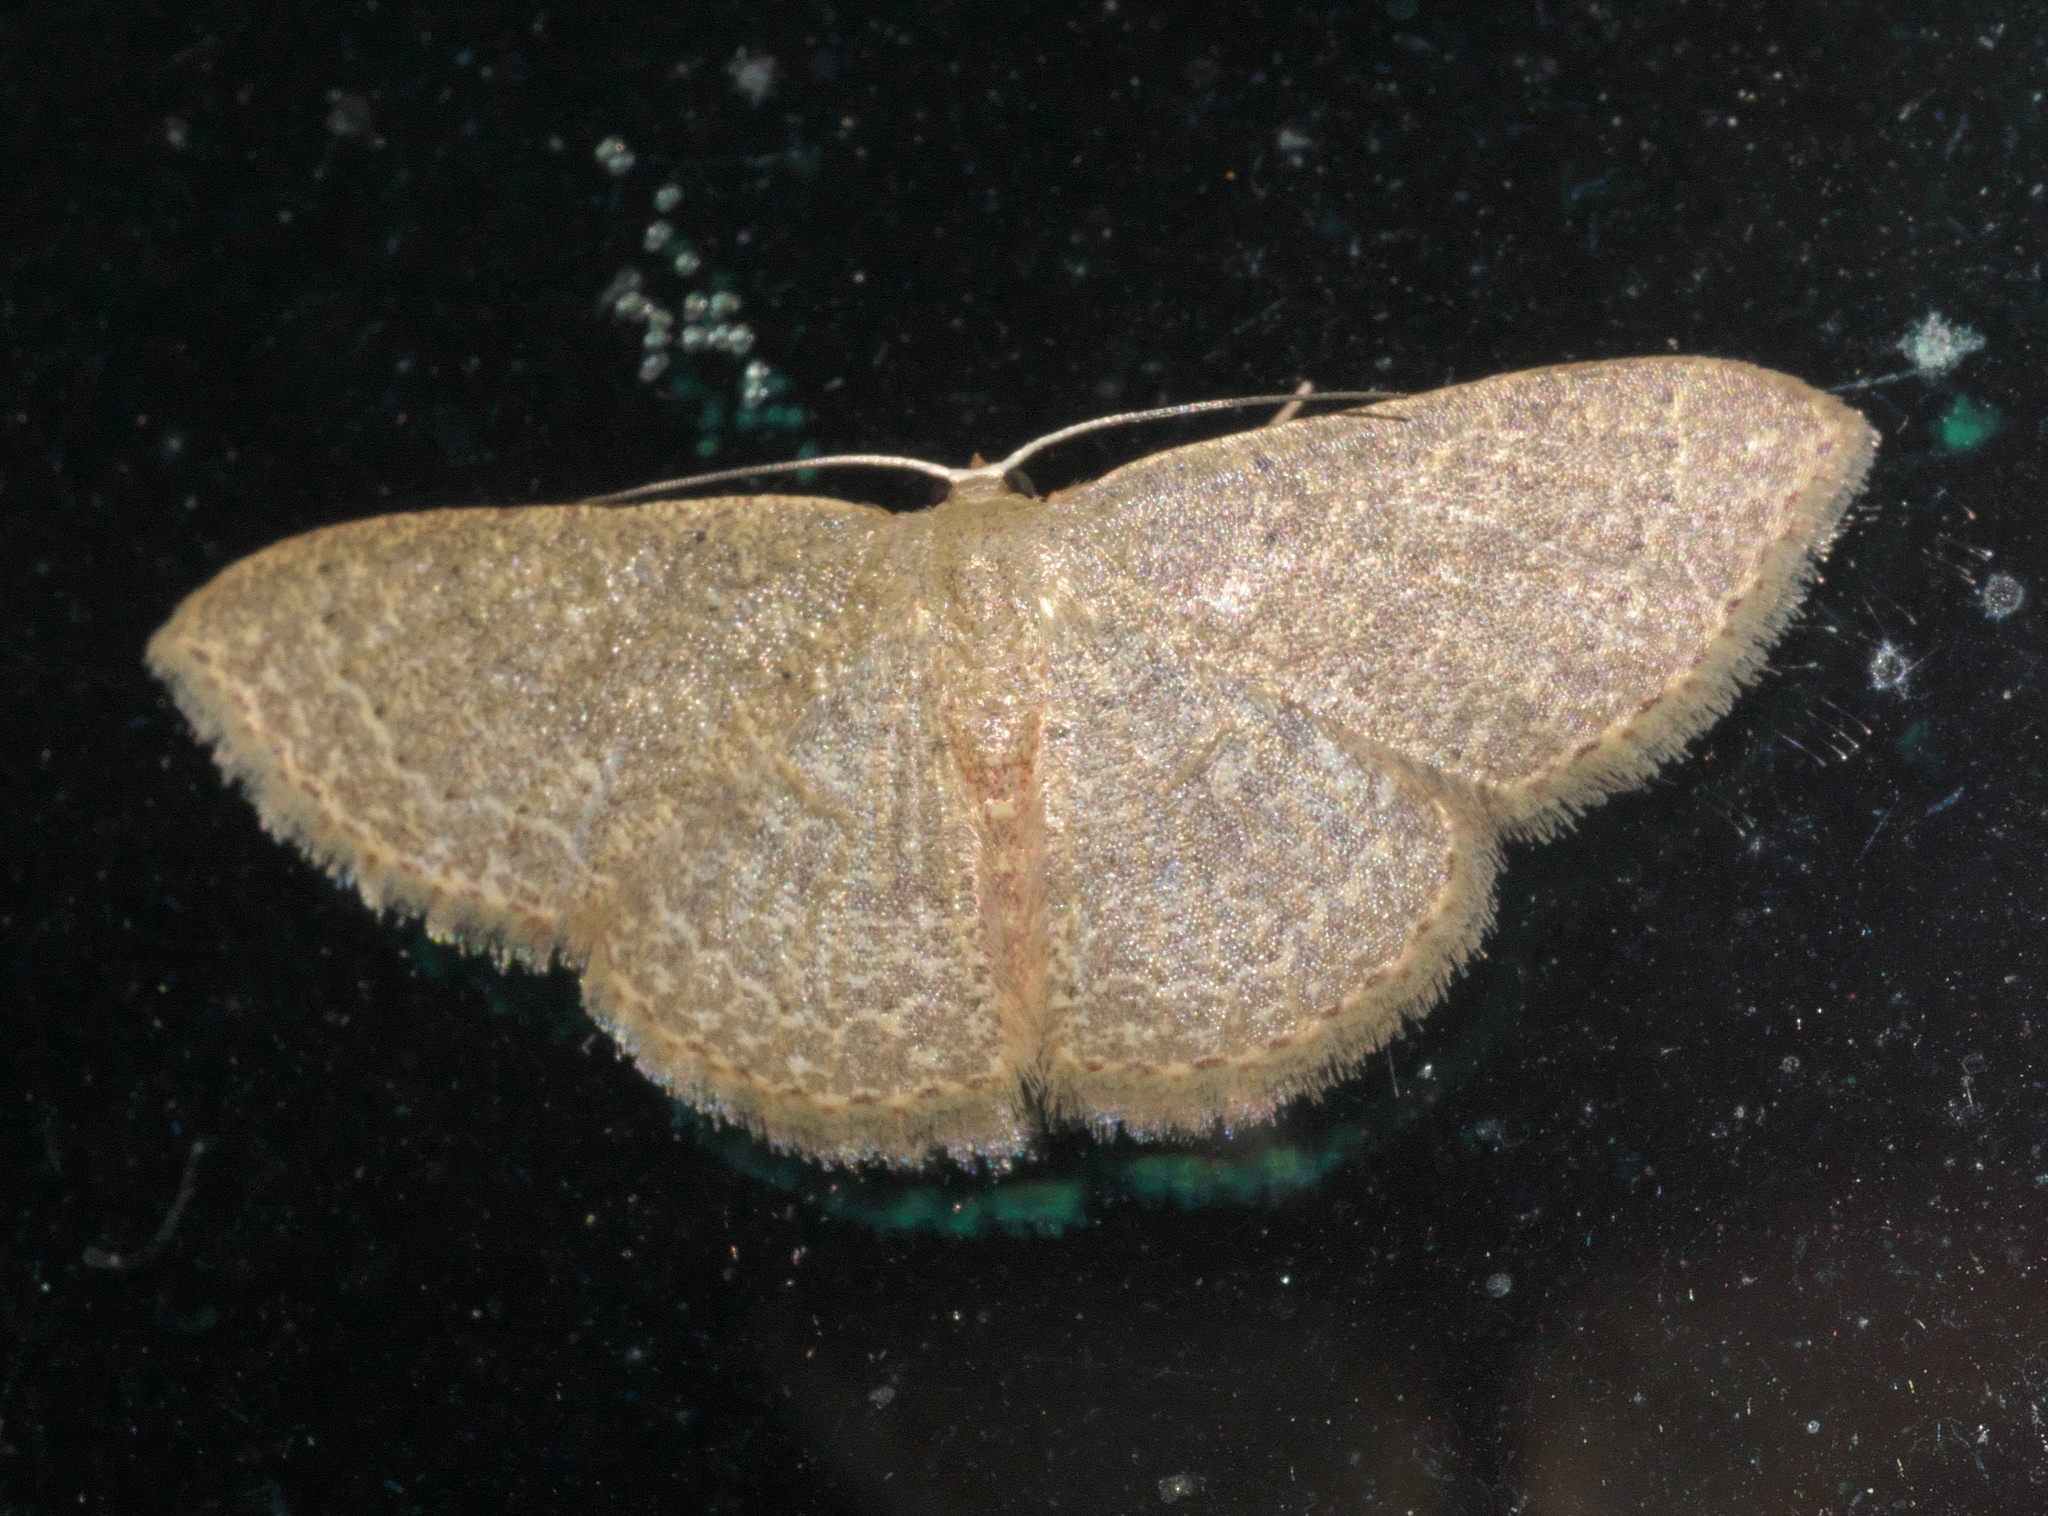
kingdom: Animalia
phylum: Arthropoda
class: Insecta
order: Lepidoptera
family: Geometridae
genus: Pleuroprucha
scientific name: Pleuroprucha insulsaria
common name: Common tan wave
